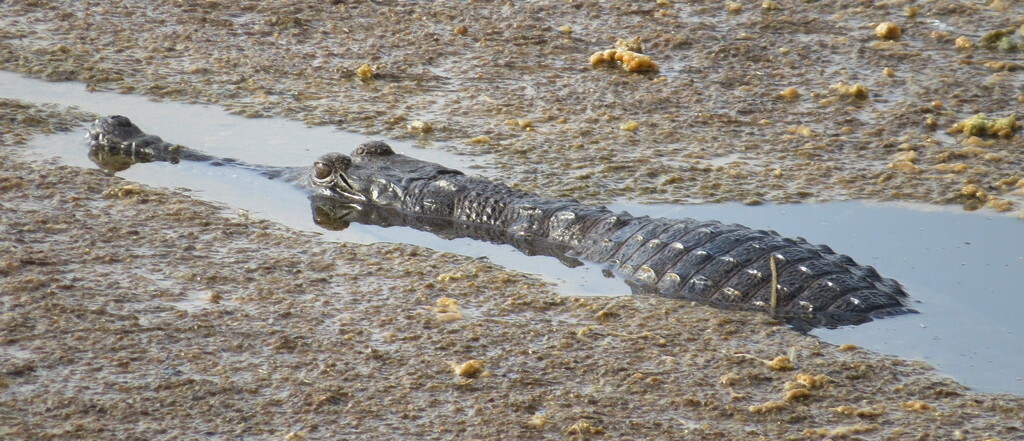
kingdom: Animalia
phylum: Chordata
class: Crocodylia
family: Crocodylidae
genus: Crocodylus
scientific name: Crocodylus johnsoni
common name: Freshwater crocodile
